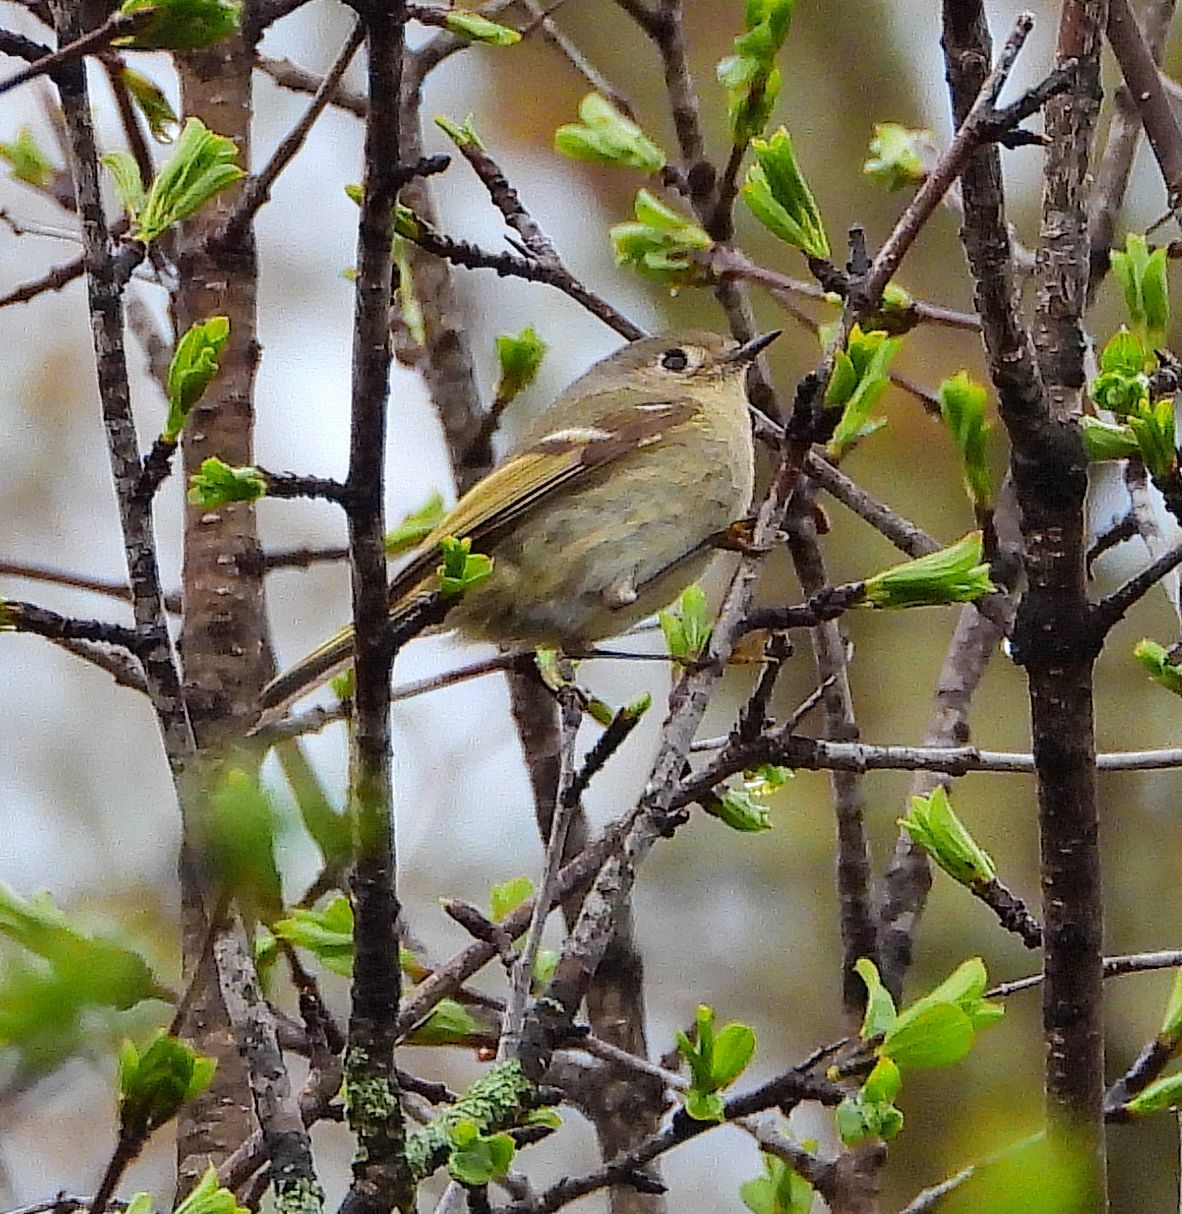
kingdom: Animalia
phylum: Chordata
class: Aves
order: Passeriformes
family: Regulidae
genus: Regulus
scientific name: Regulus calendula
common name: Ruby-crowned kinglet
